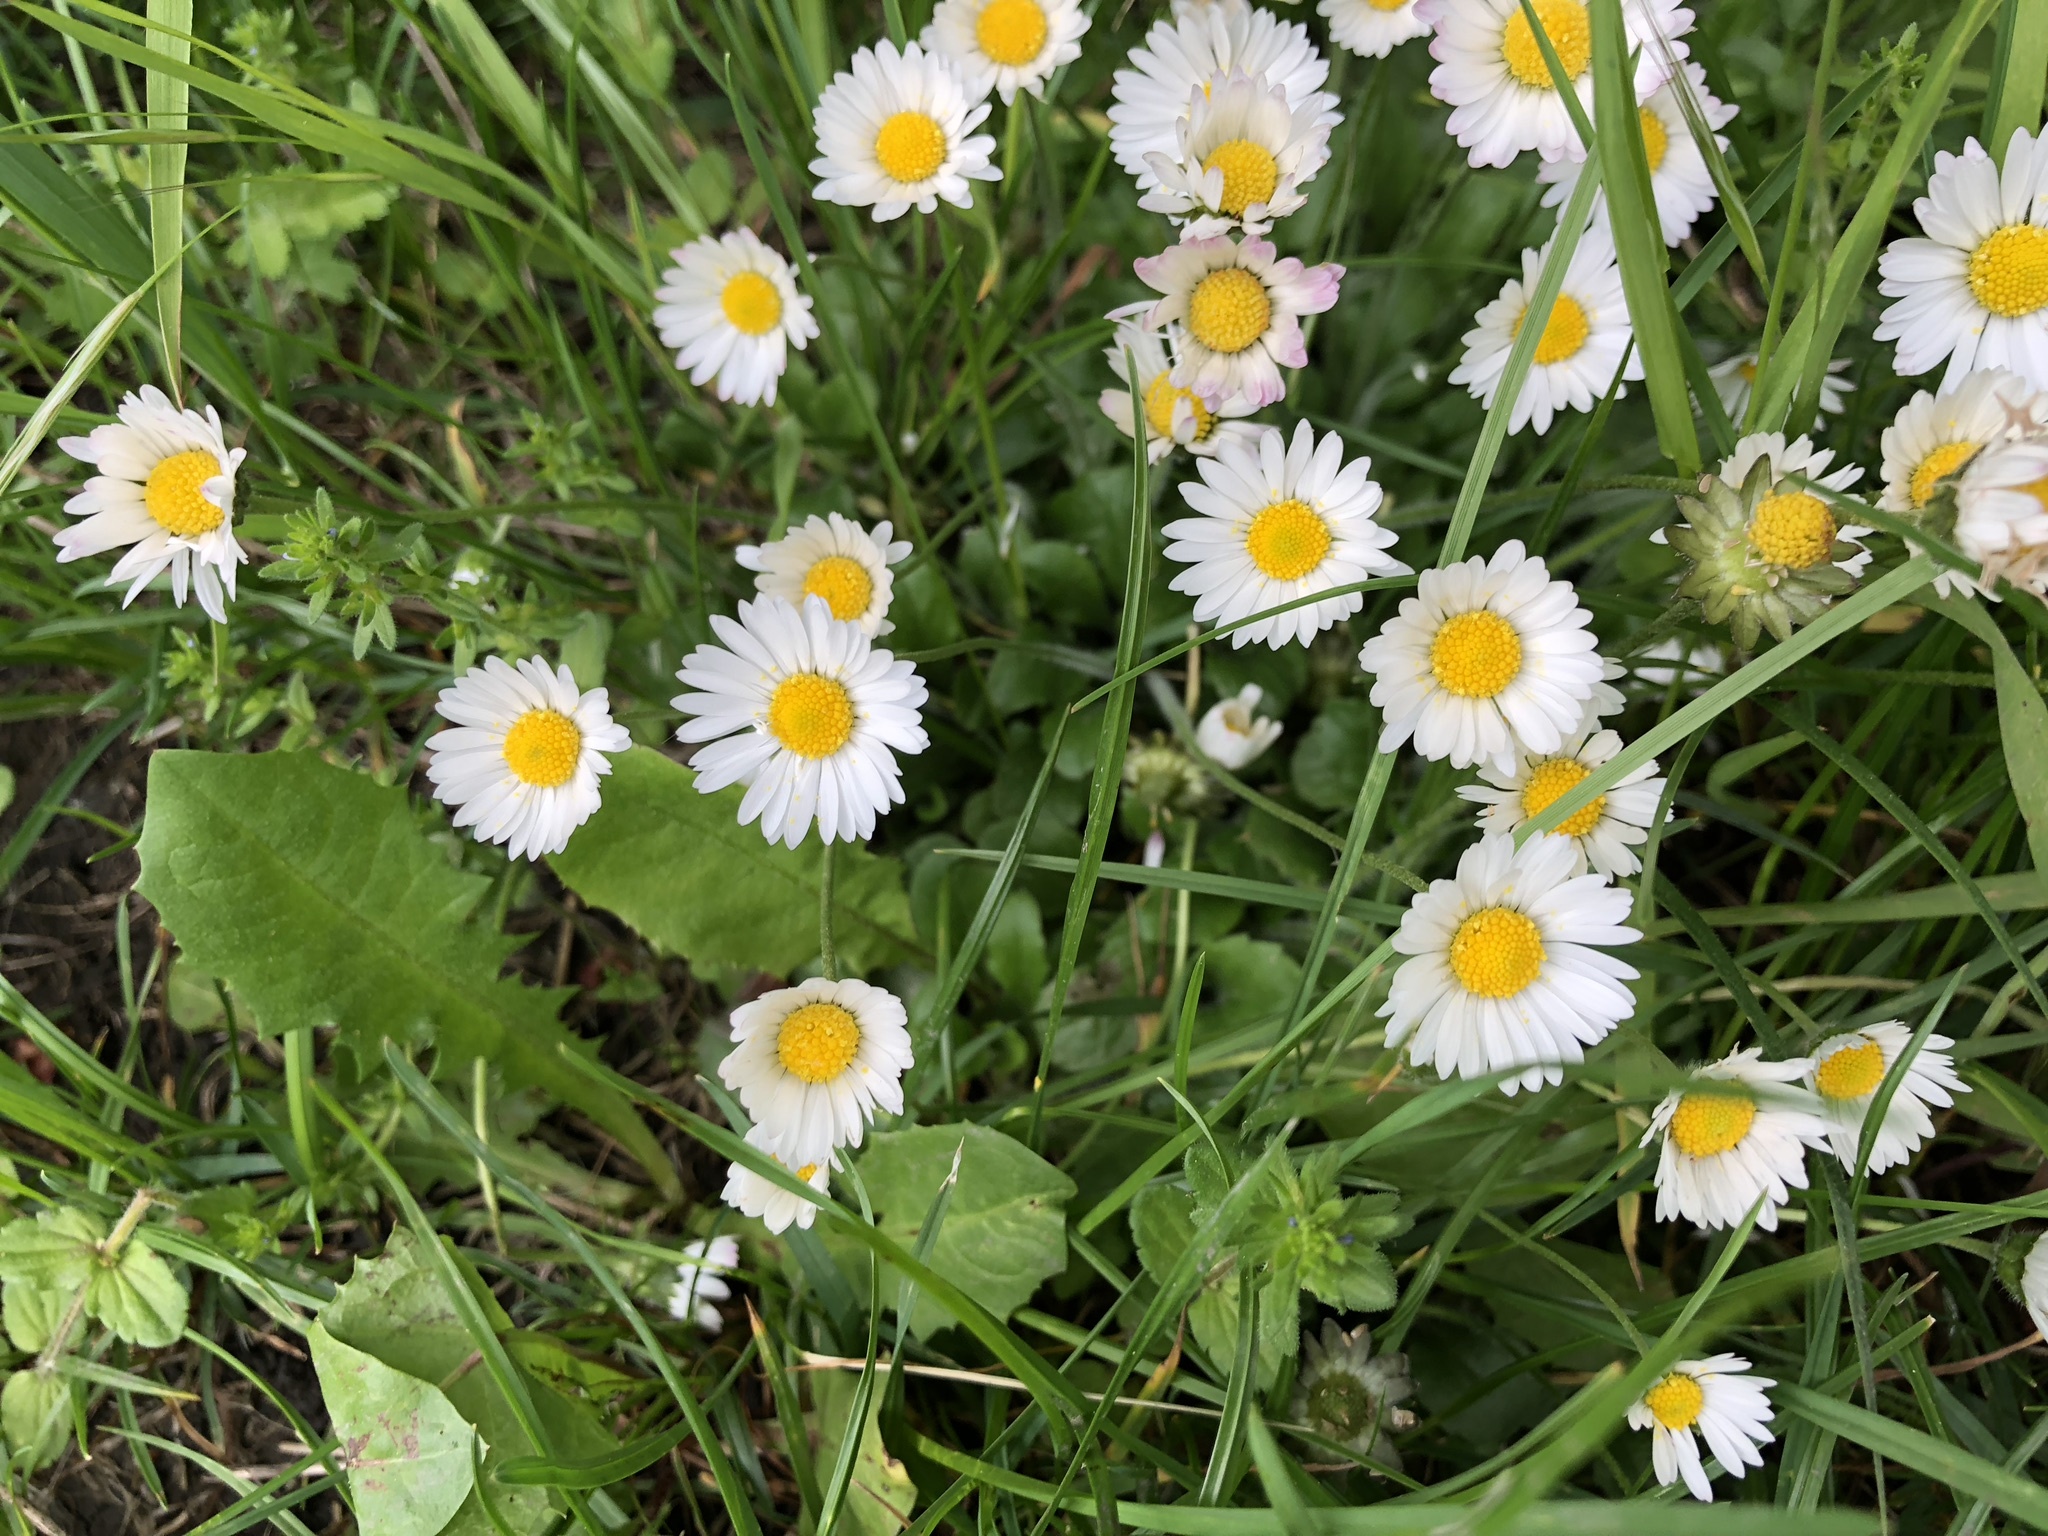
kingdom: Plantae
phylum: Tracheophyta
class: Magnoliopsida
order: Asterales
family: Asteraceae
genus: Bellis
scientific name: Bellis perennis
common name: Lawndaisy
